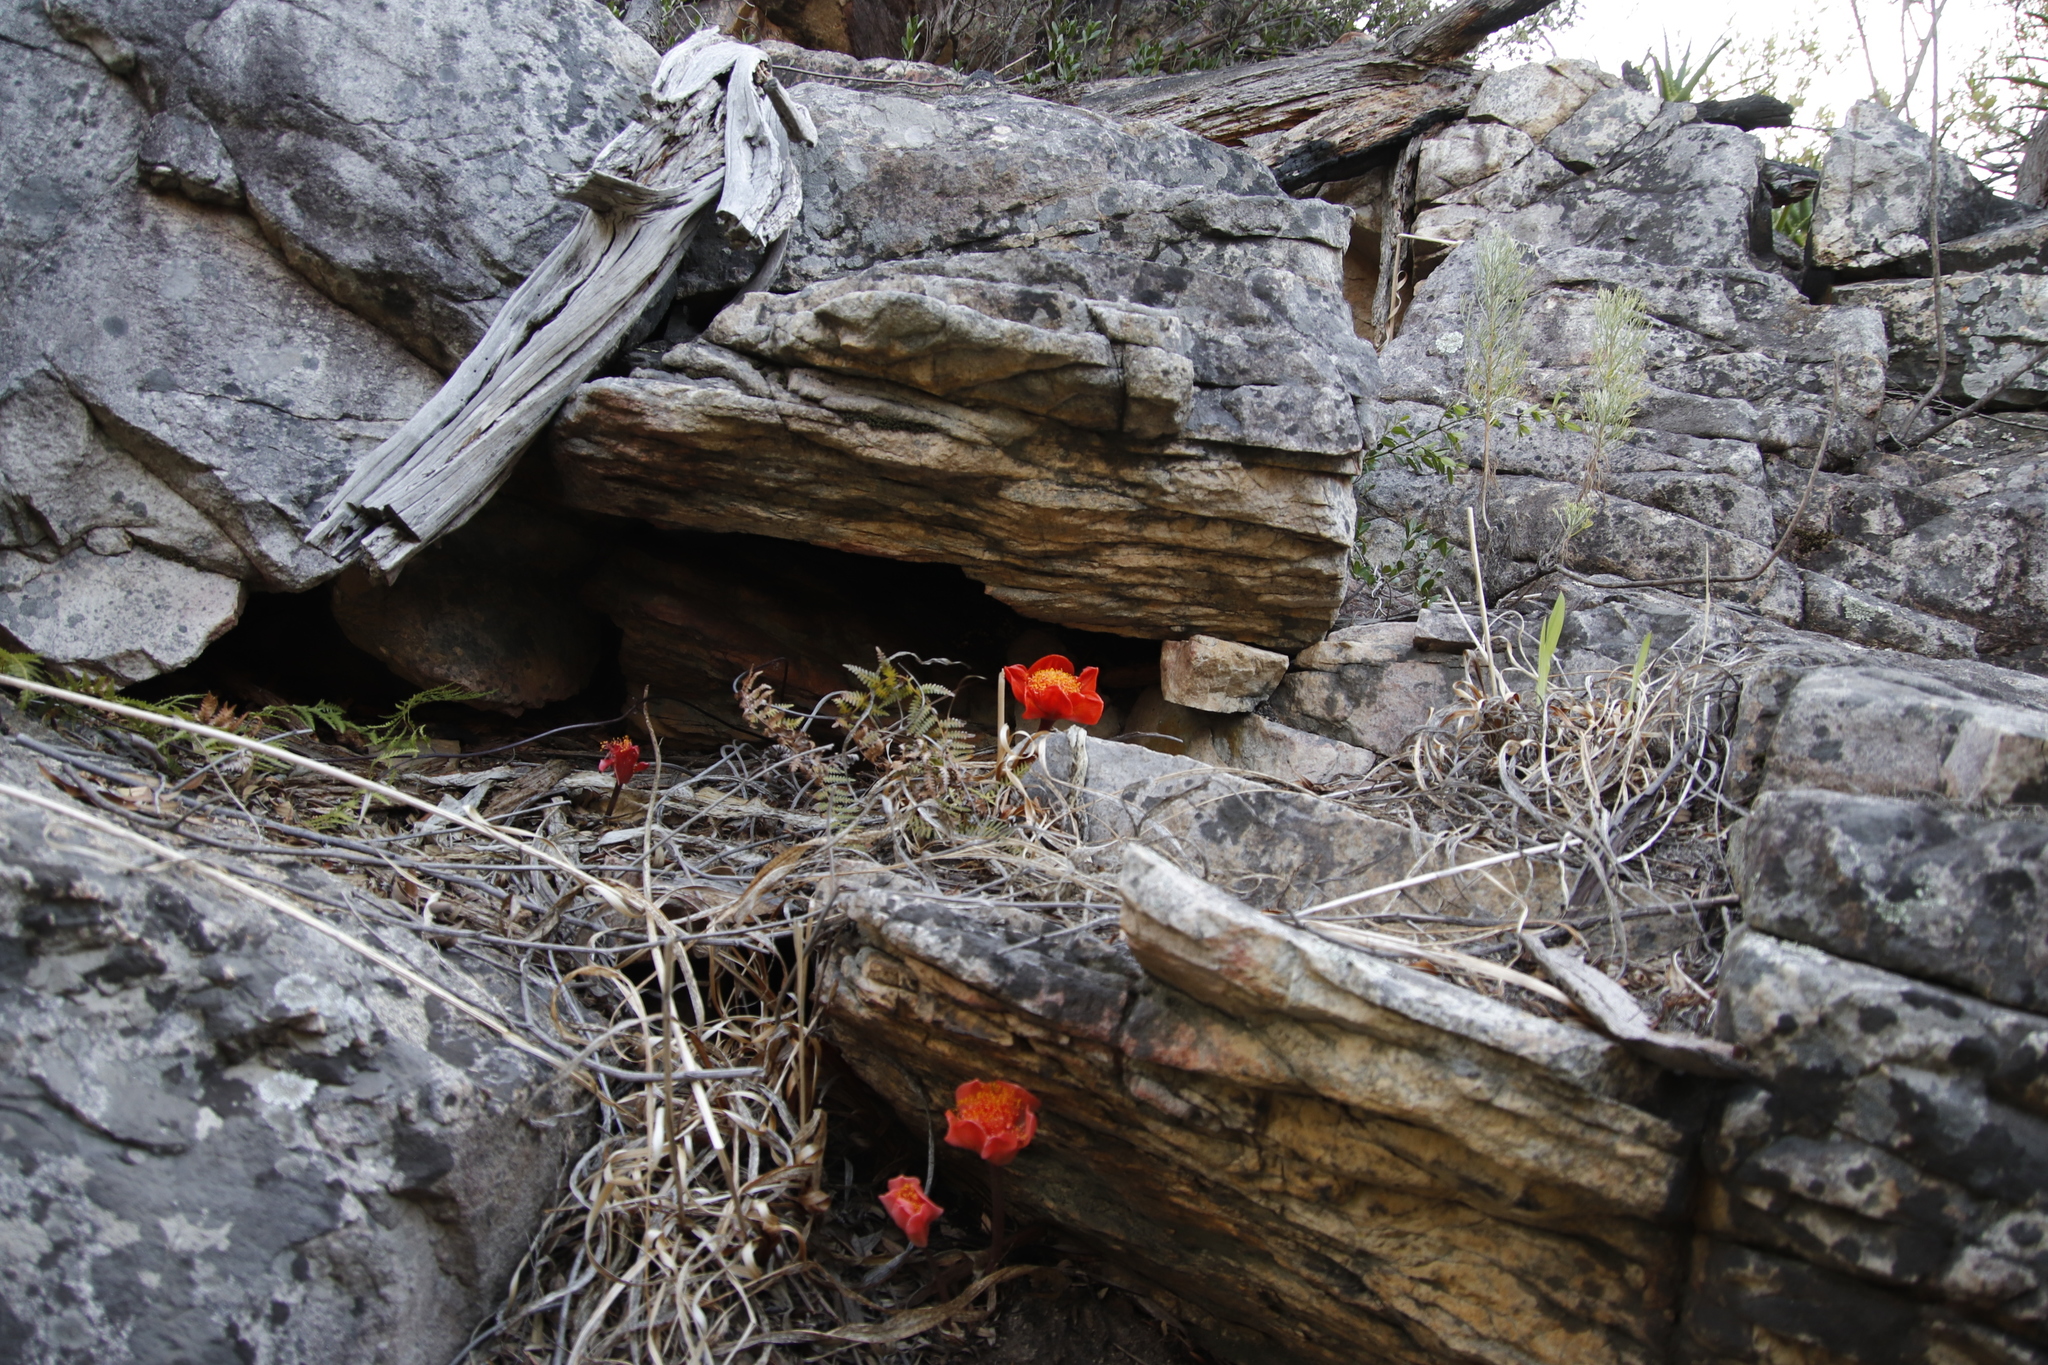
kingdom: Plantae
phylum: Tracheophyta
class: Liliopsida
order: Asparagales
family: Amaryllidaceae
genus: Haemanthus
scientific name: Haemanthus coccineus
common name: Cape-tulip
